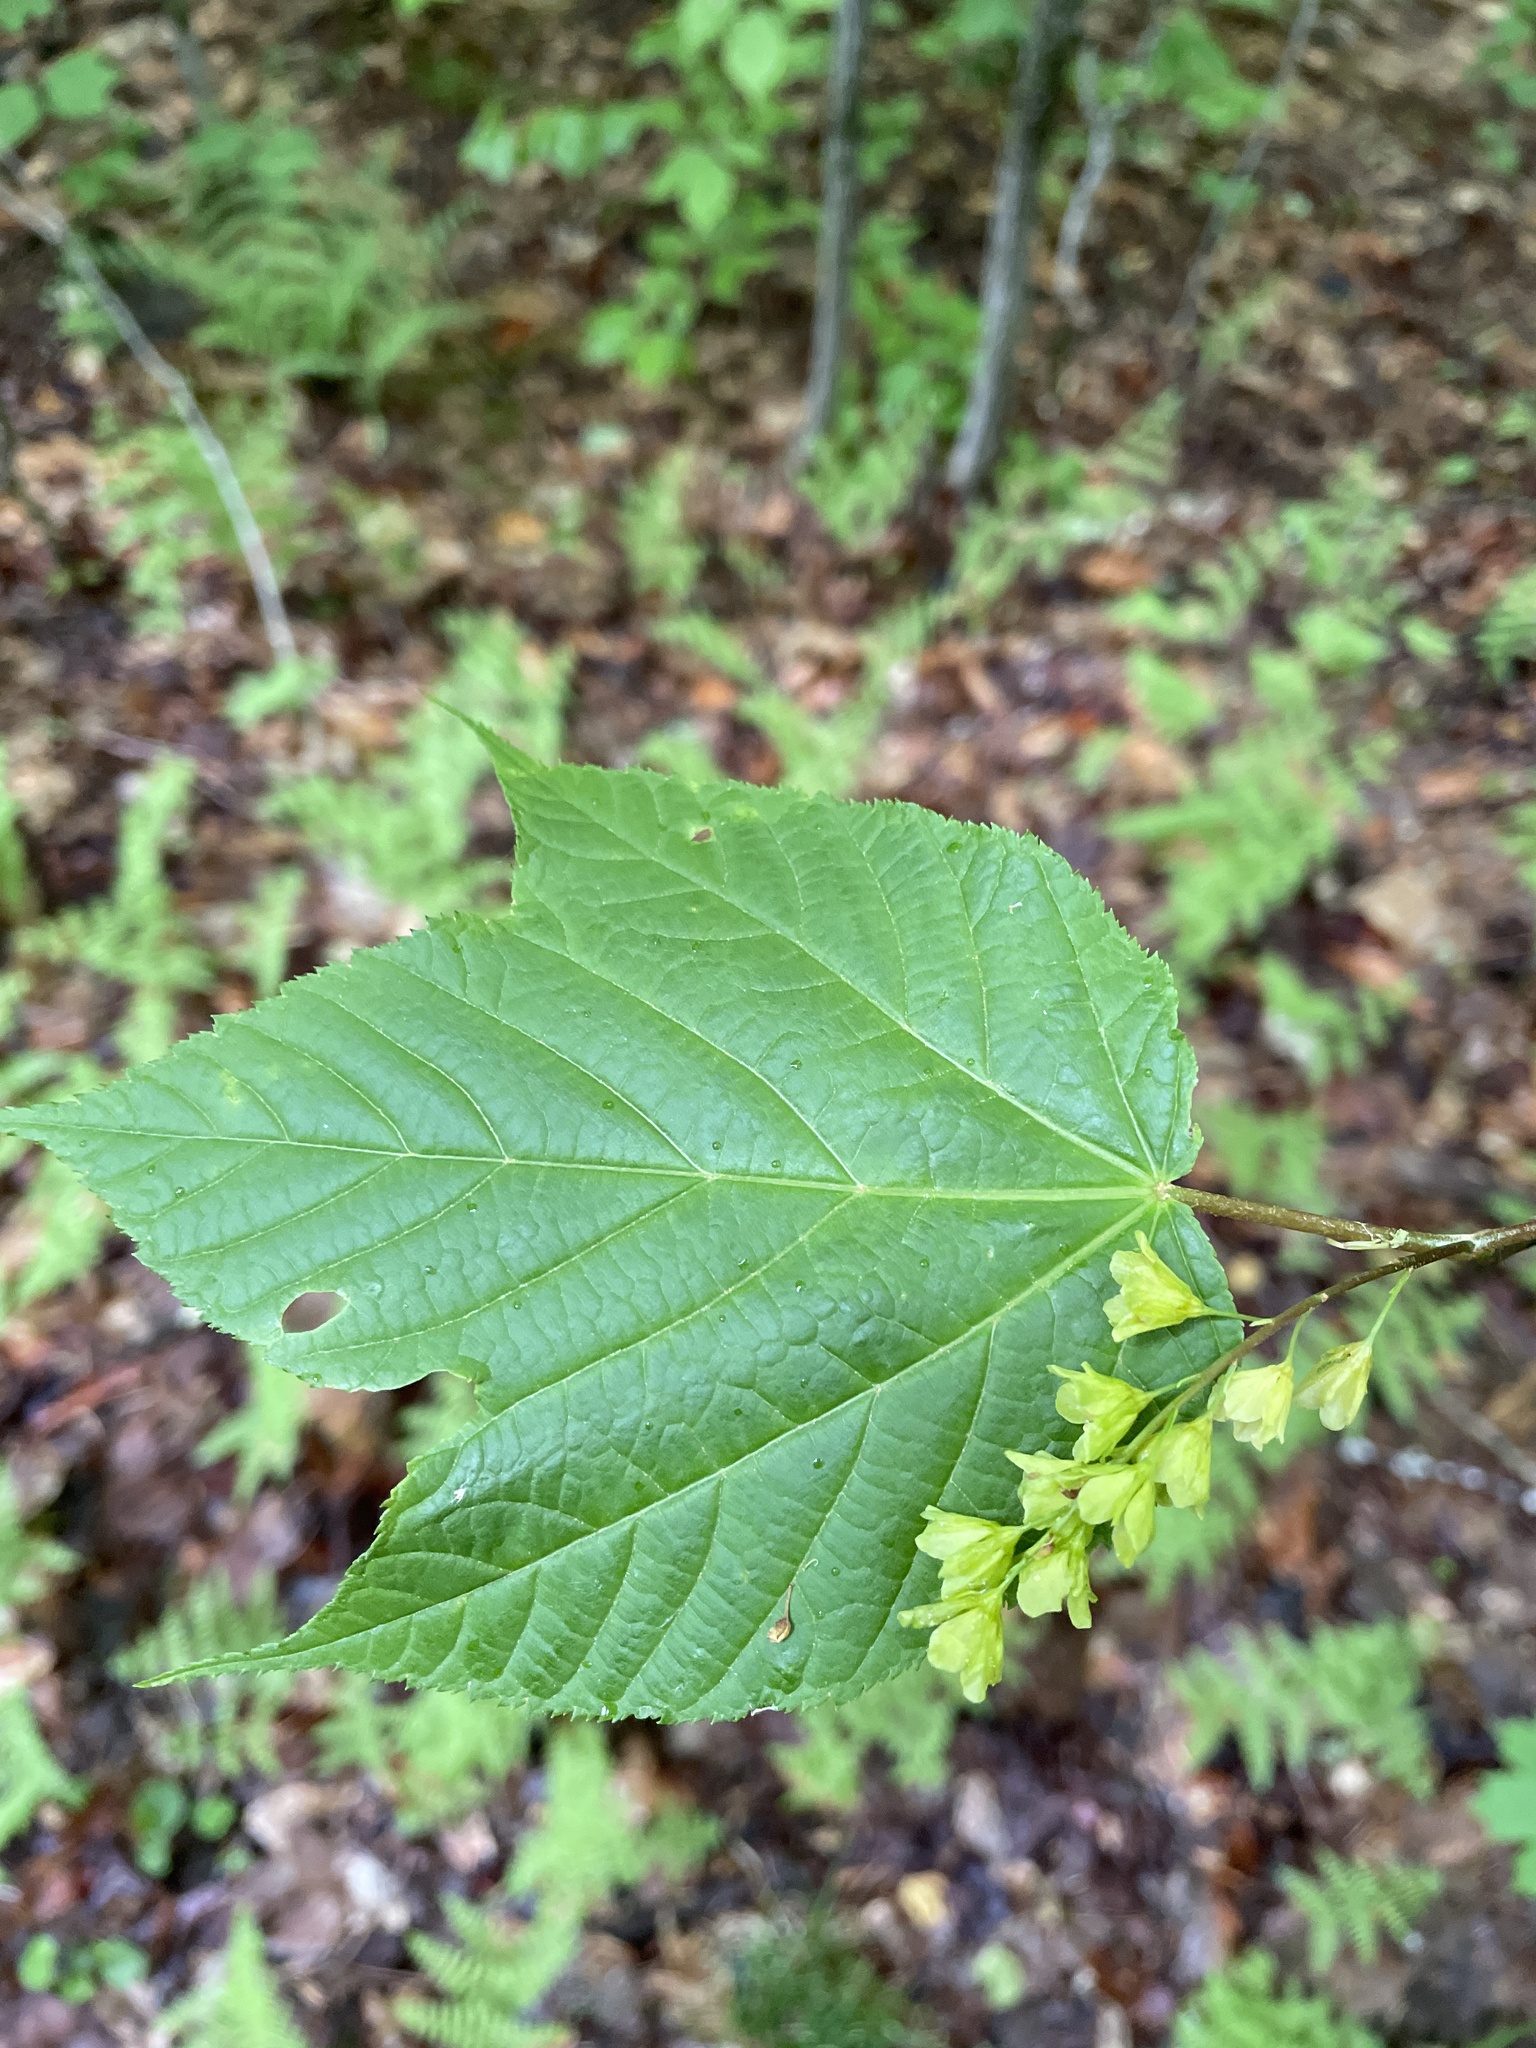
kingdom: Plantae
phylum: Tracheophyta
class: Magnoliopsida
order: Sapindales
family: Sapindaceae
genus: Acer
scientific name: Acer pensylvanicum
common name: Moosewood
